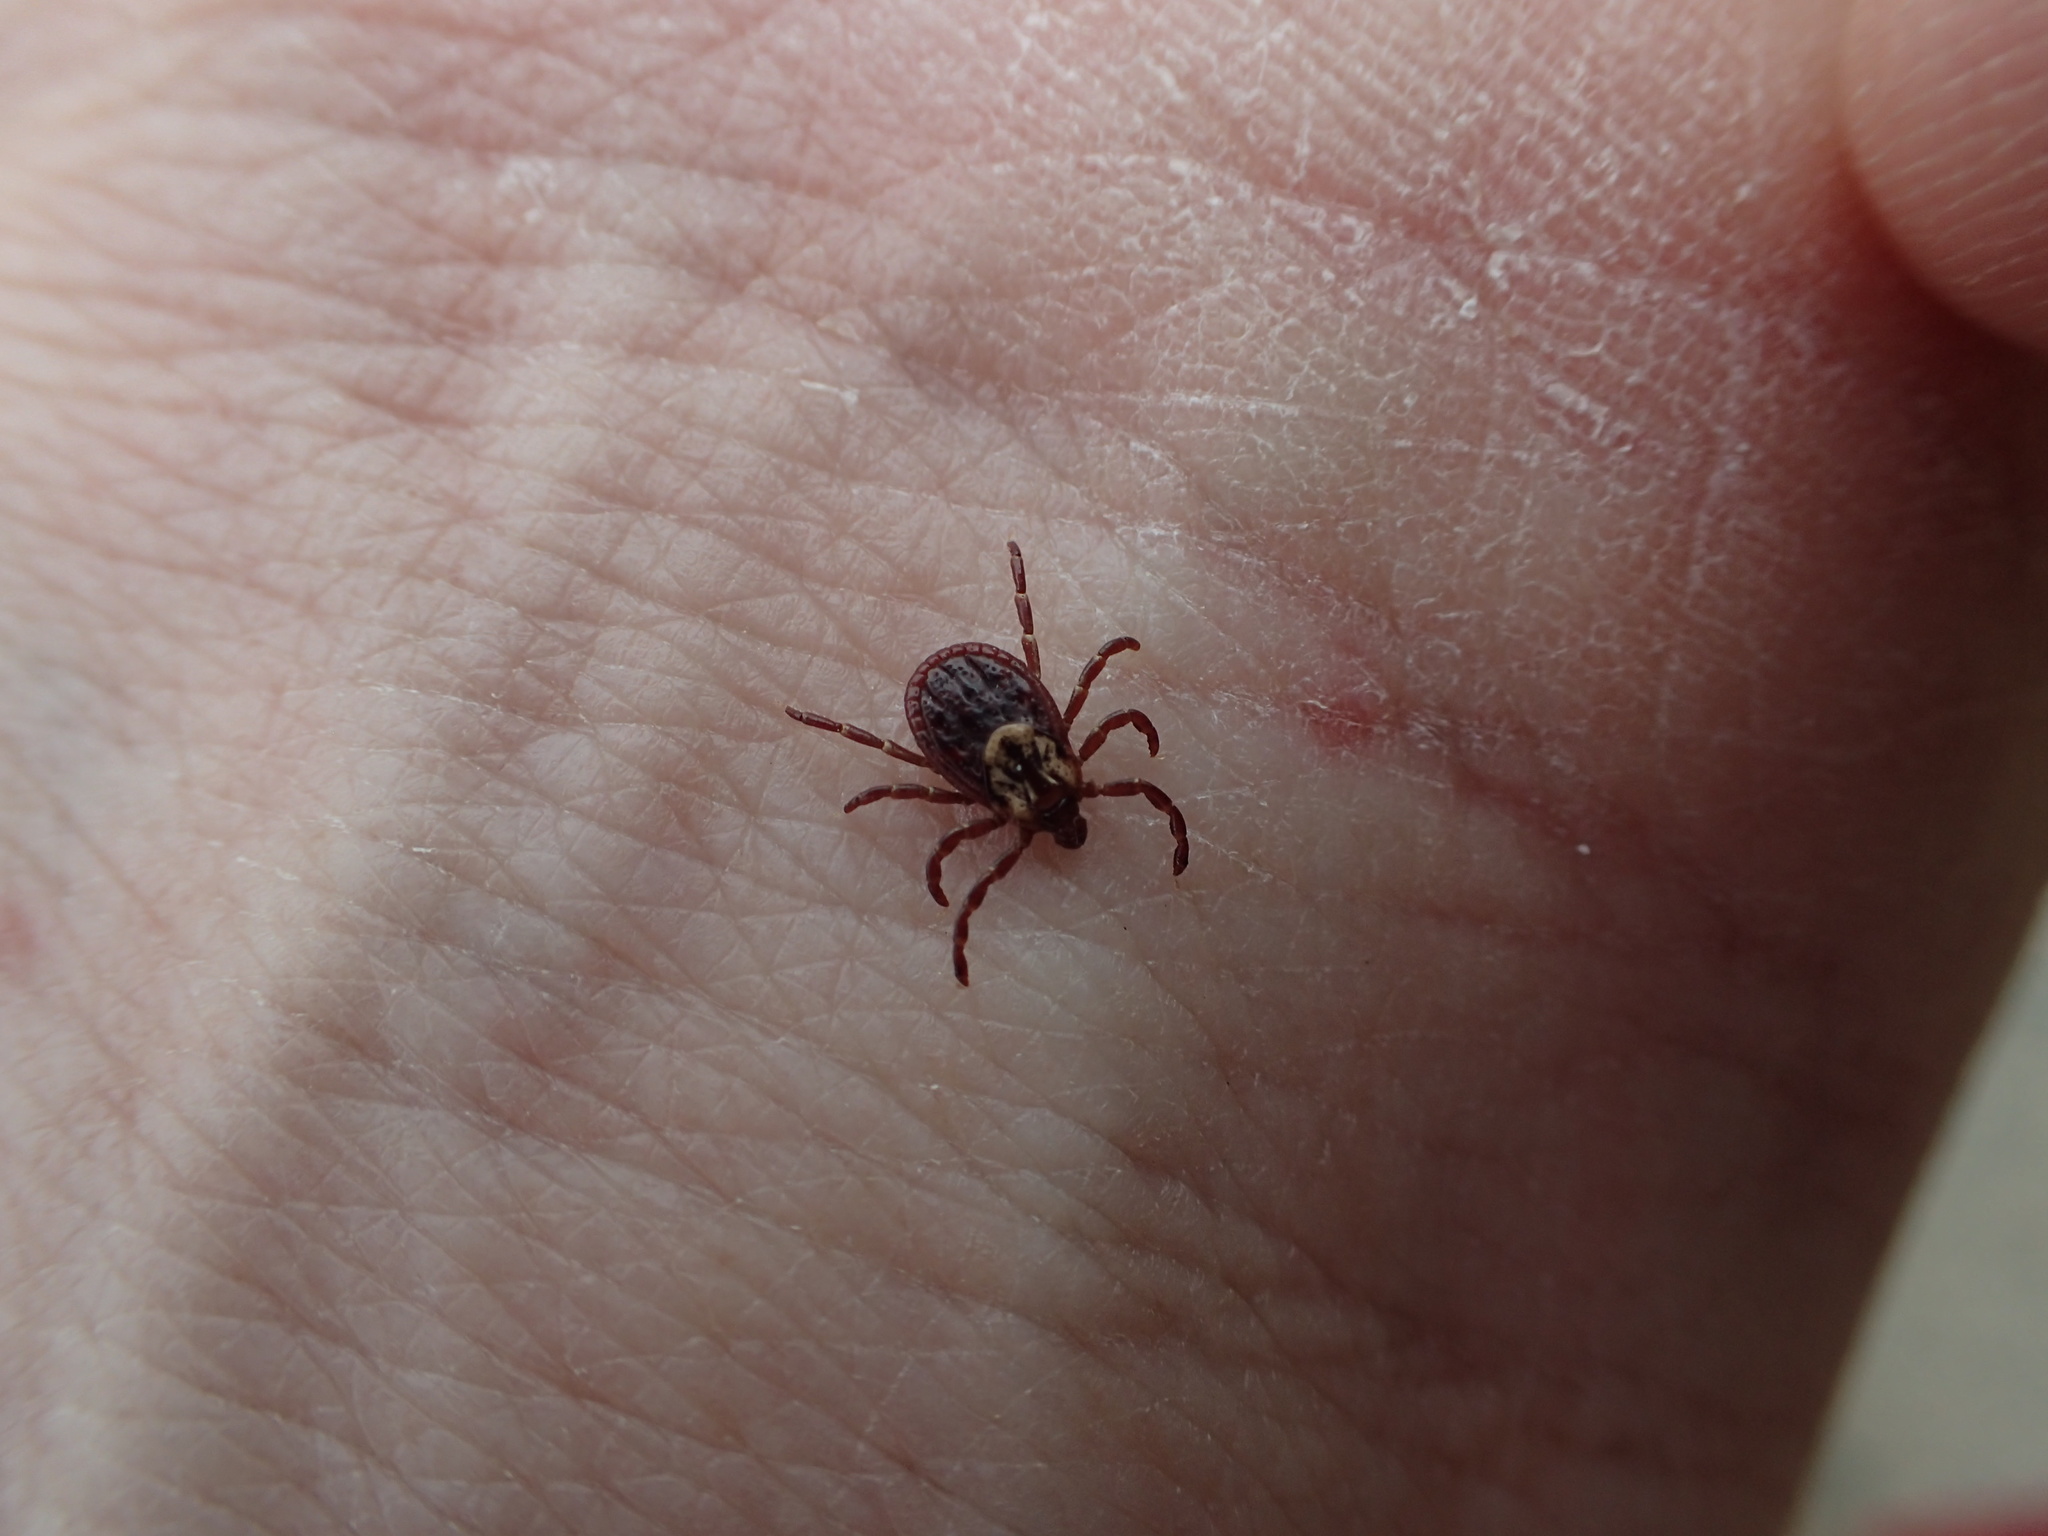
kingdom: Animalia
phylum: Arthropoda
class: Arachnida
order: Ixodida
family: Ixodidae
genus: Dermacentor
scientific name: Dermacentor variabilis
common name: American dog tick
